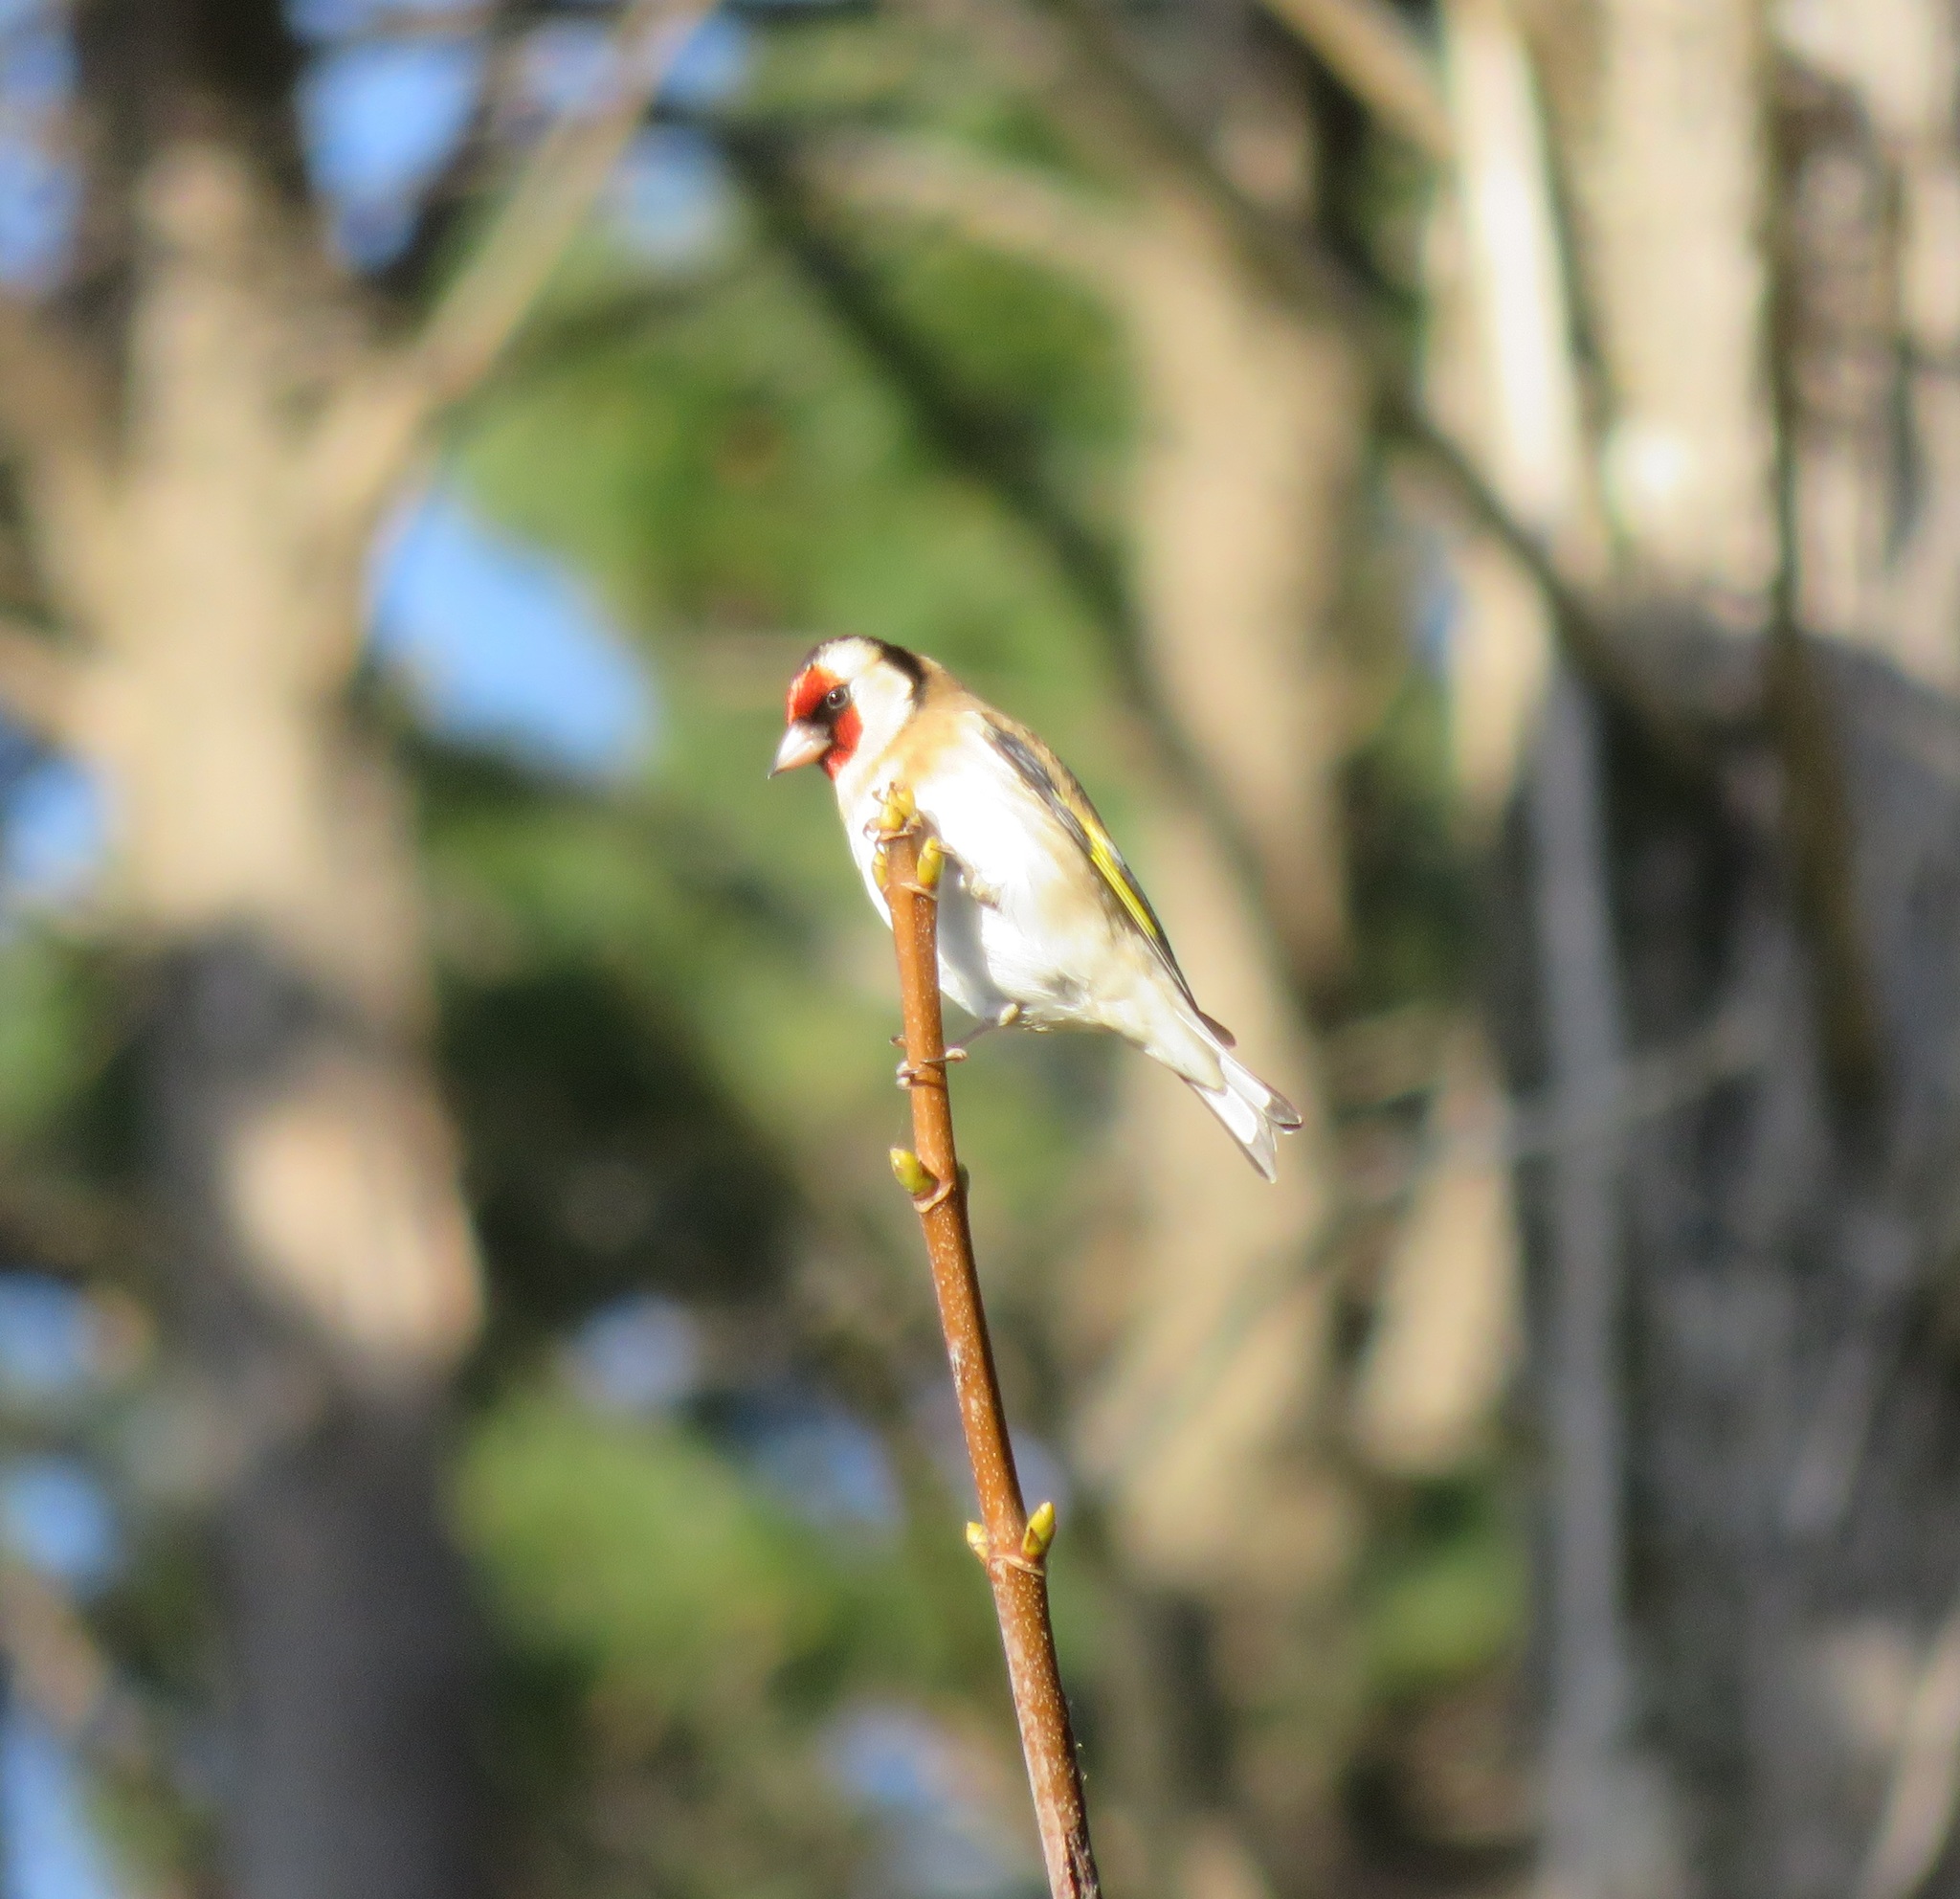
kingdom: Animalia
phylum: Chordata
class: Aves
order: Passeriformes
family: Fringillidae
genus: Carduelis
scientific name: Carduelis carduelis
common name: European goldfinch
